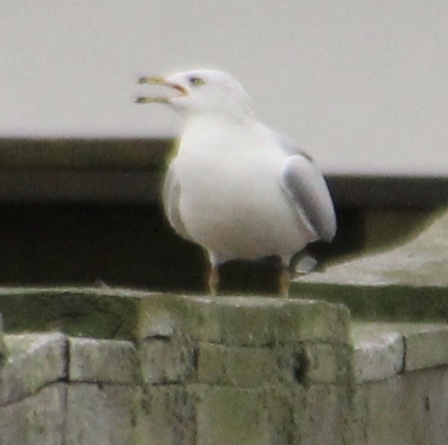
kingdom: Animalia
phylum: Chordata
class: Aves
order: Charadriiformes
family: Laridae
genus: Larus
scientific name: Larus delawarensis
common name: Ring-billed gull
